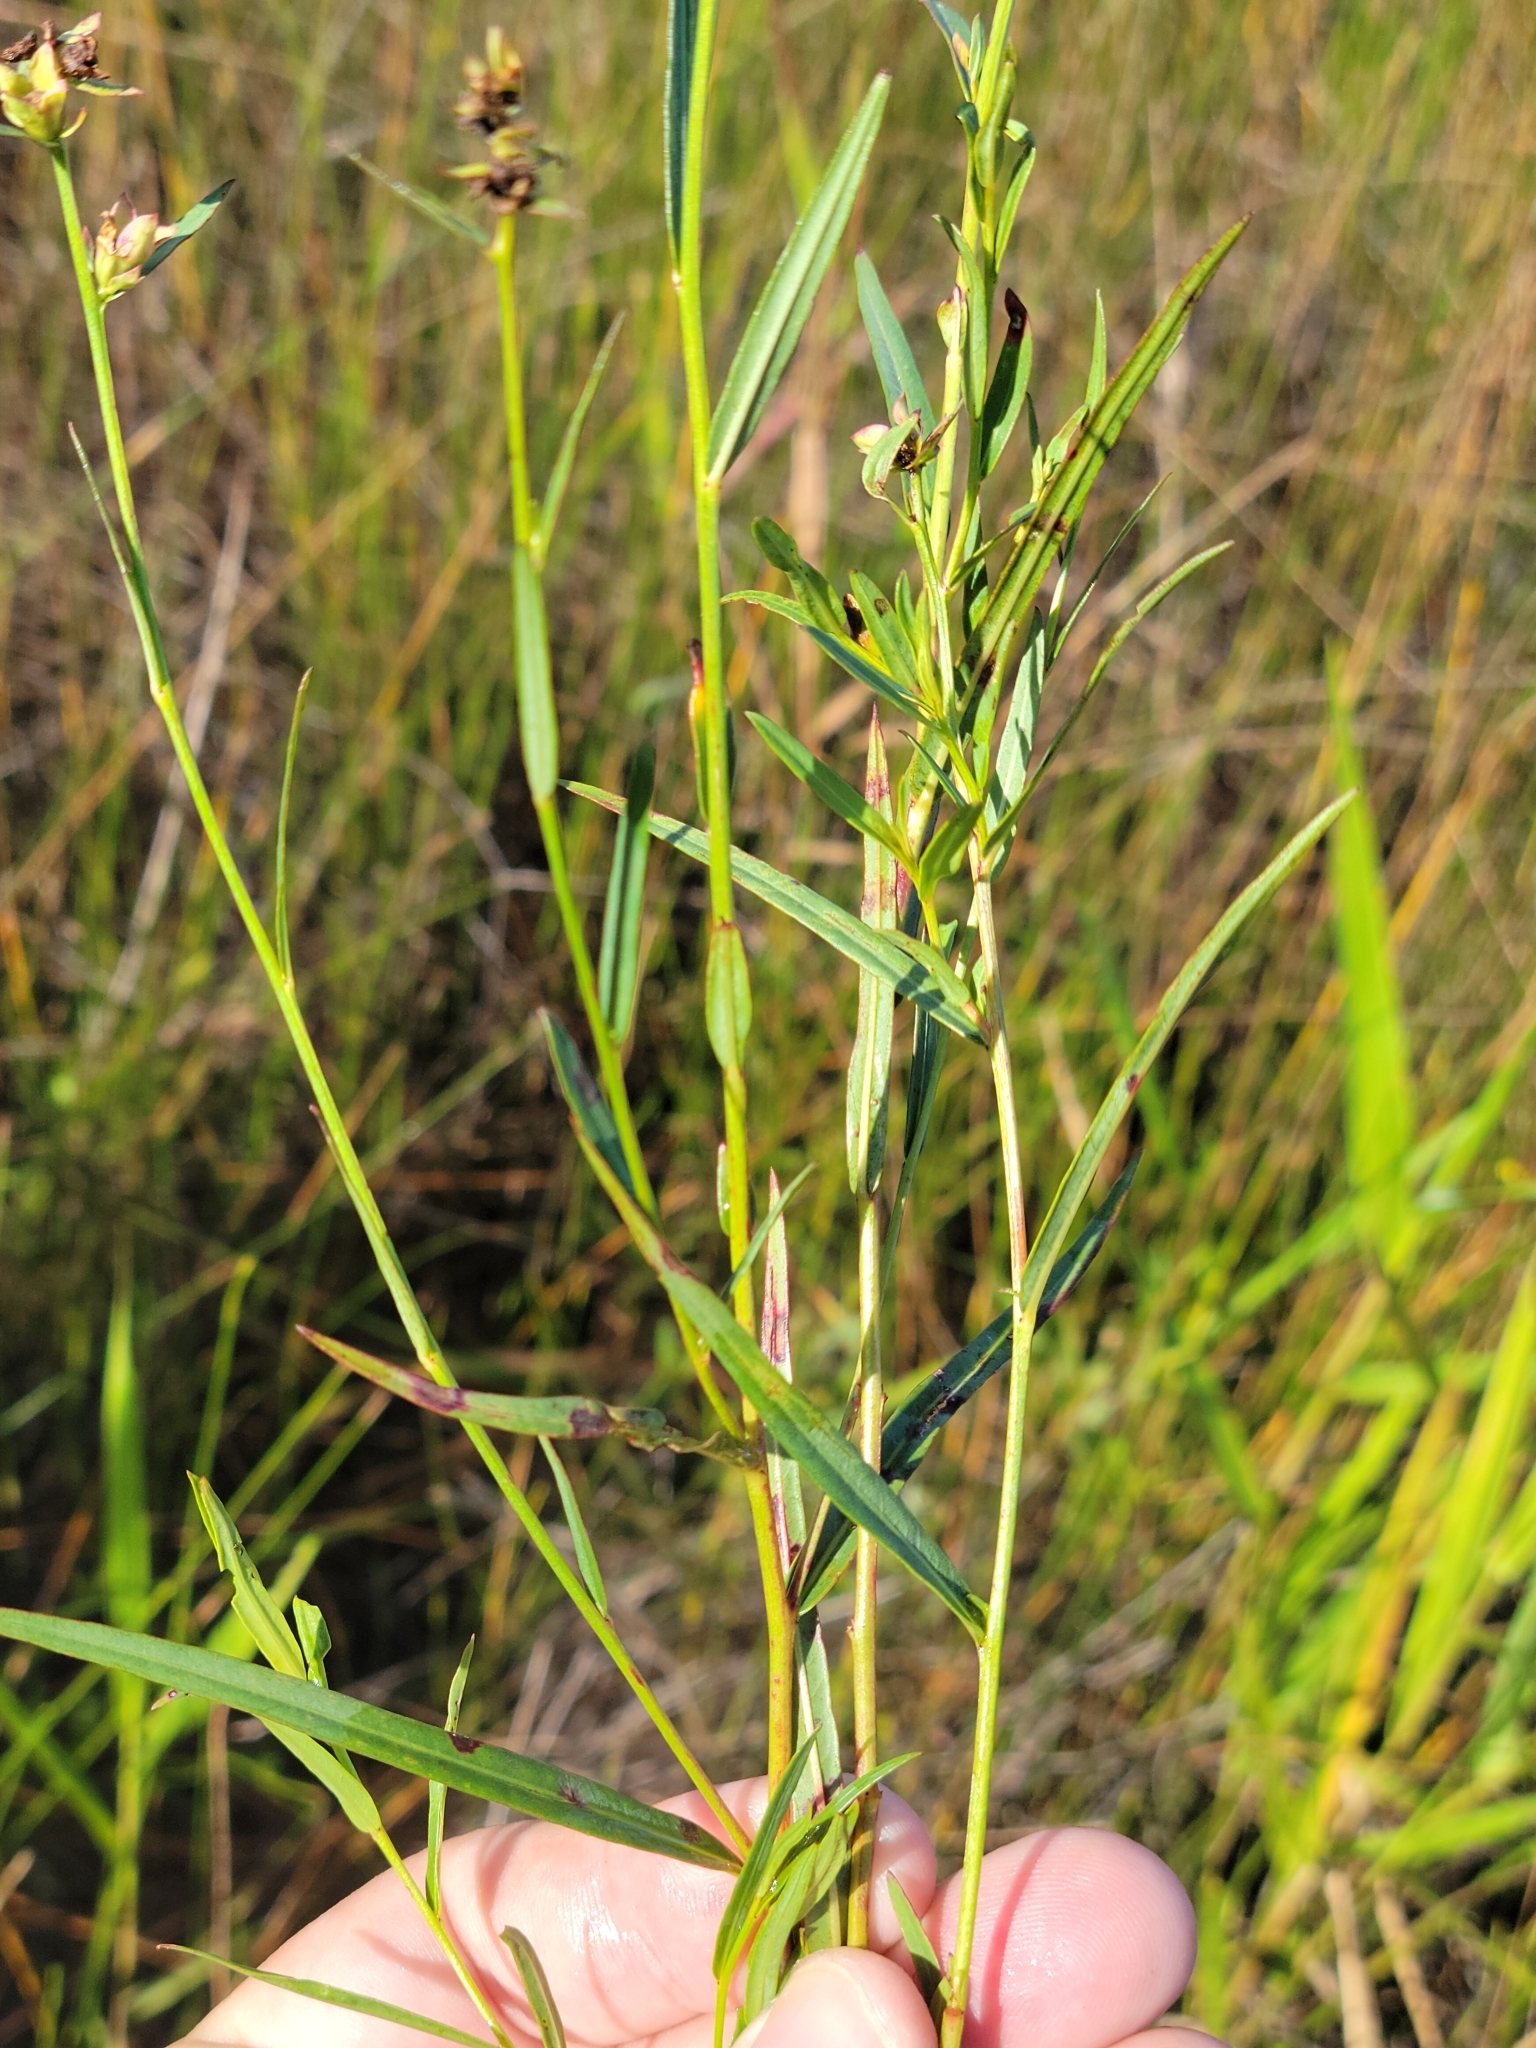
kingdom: Plantae
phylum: Tracheophyta
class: Magnoliopsida
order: Myrtales
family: Onagraceae
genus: Ludwigia
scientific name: Ludwigia suffruticosa
